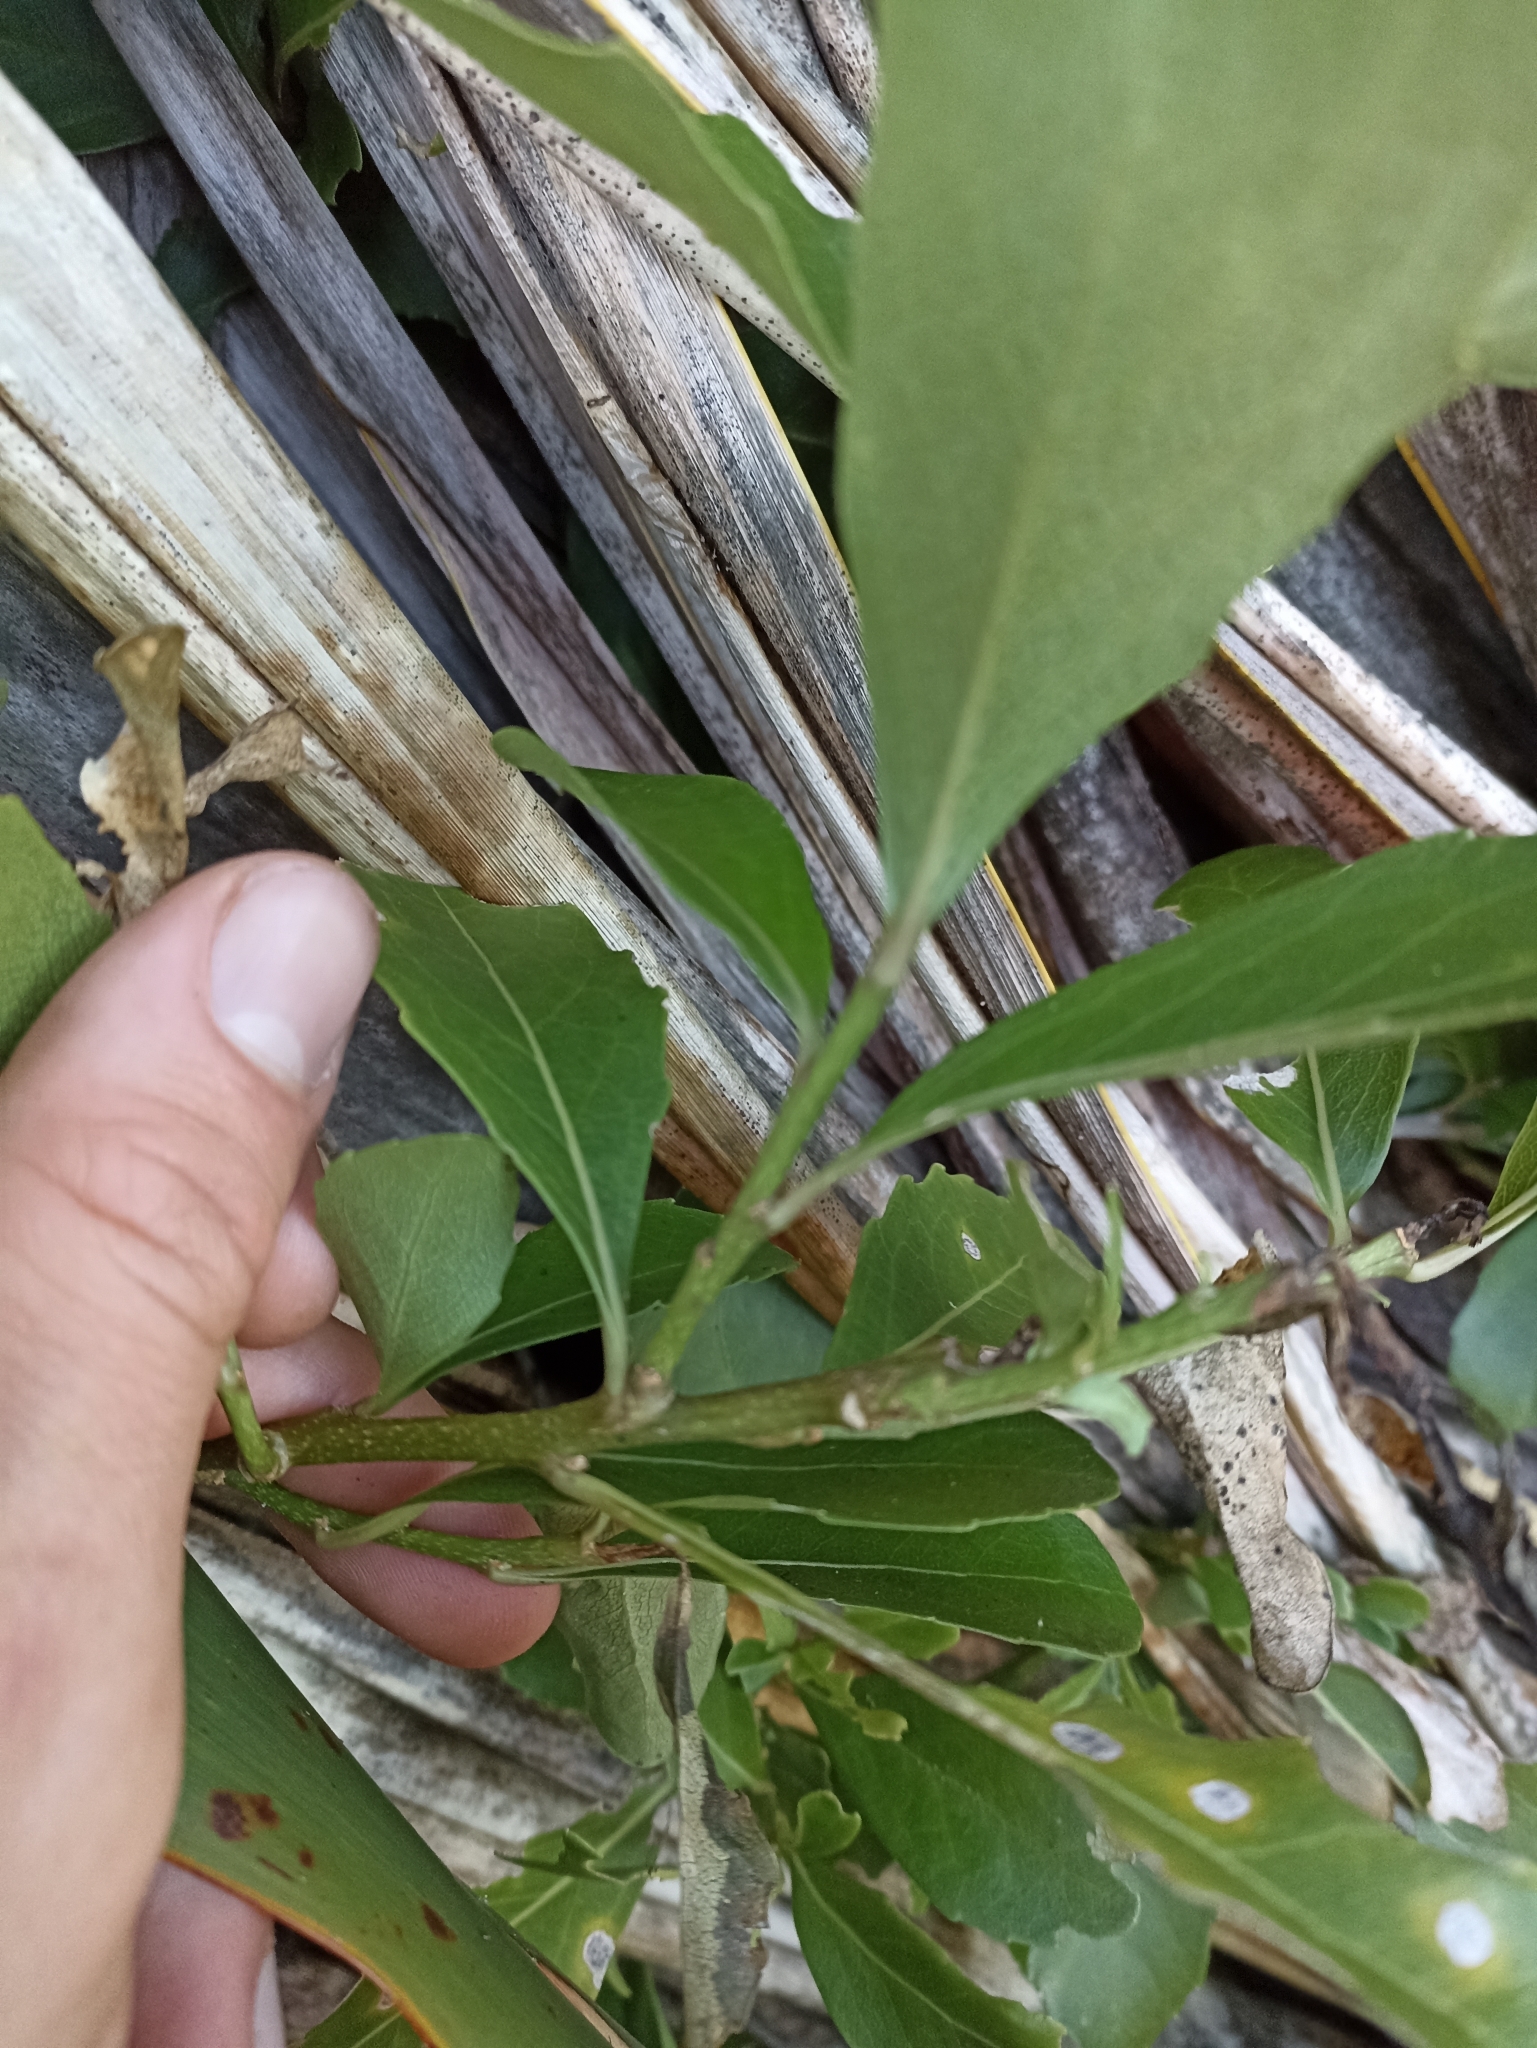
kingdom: Plantae
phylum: Tracheophyta
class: Magnoliopsida
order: Malpighiales
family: Violaceae
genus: Melicytus
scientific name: Melicytus novae-zelandiae
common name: Coastal mahoe
